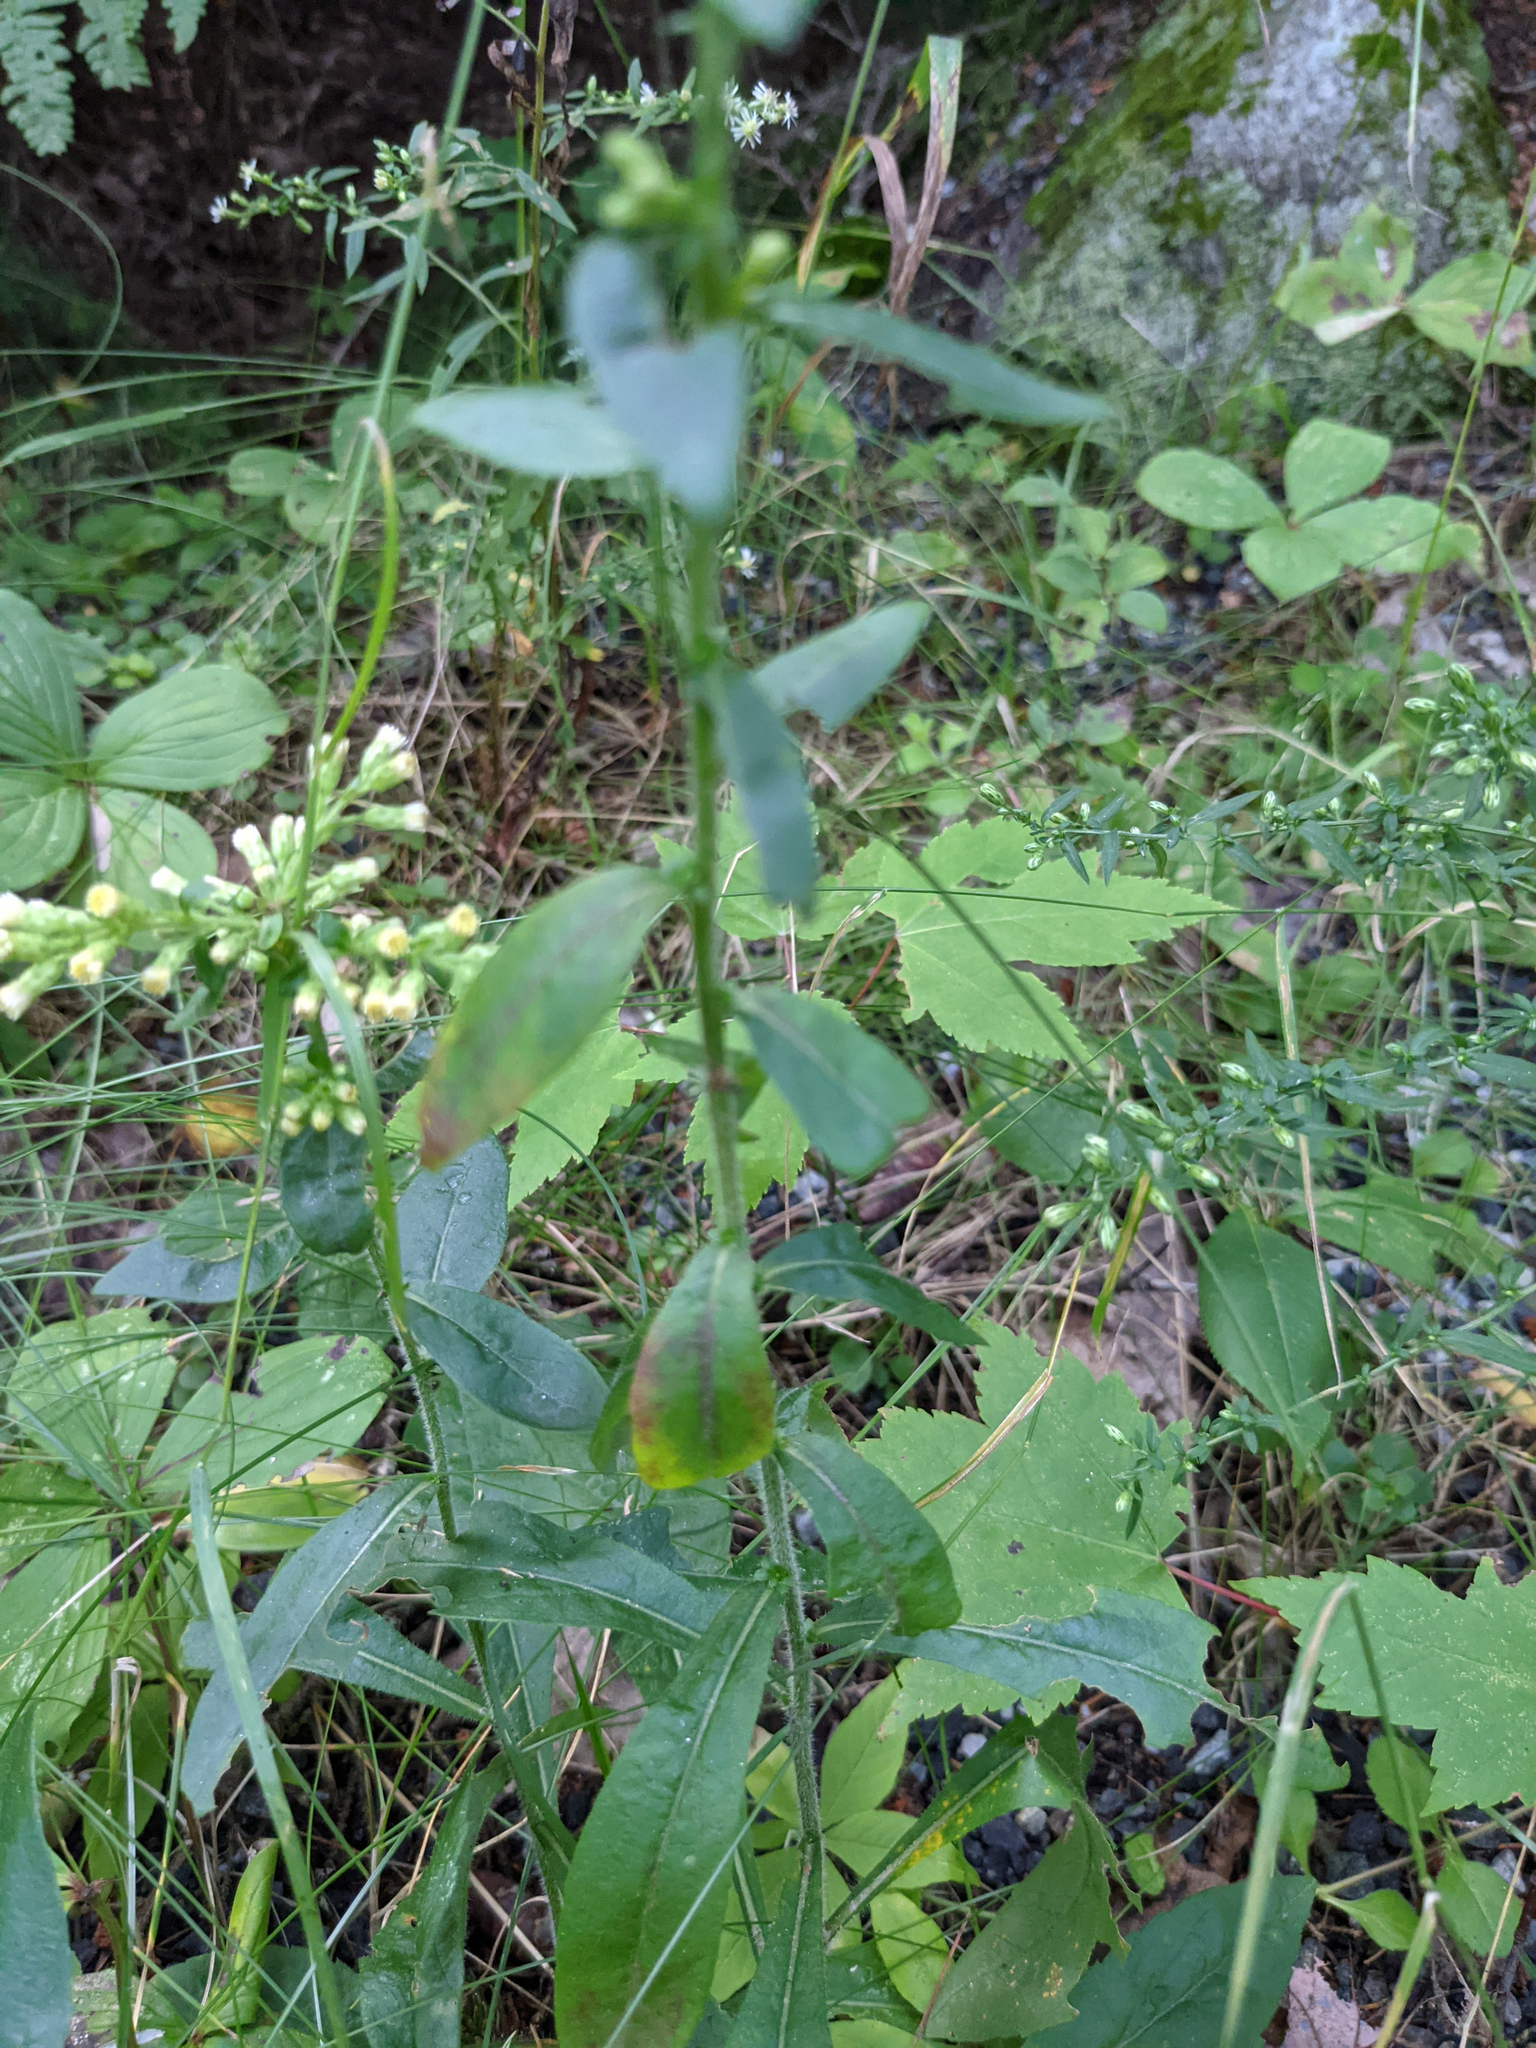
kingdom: Plantae
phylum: Tracheophyta
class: Magnoliopsida
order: Asterales
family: Asteraceae
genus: Solidago
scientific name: Solidago bicolor
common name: Silverrod
